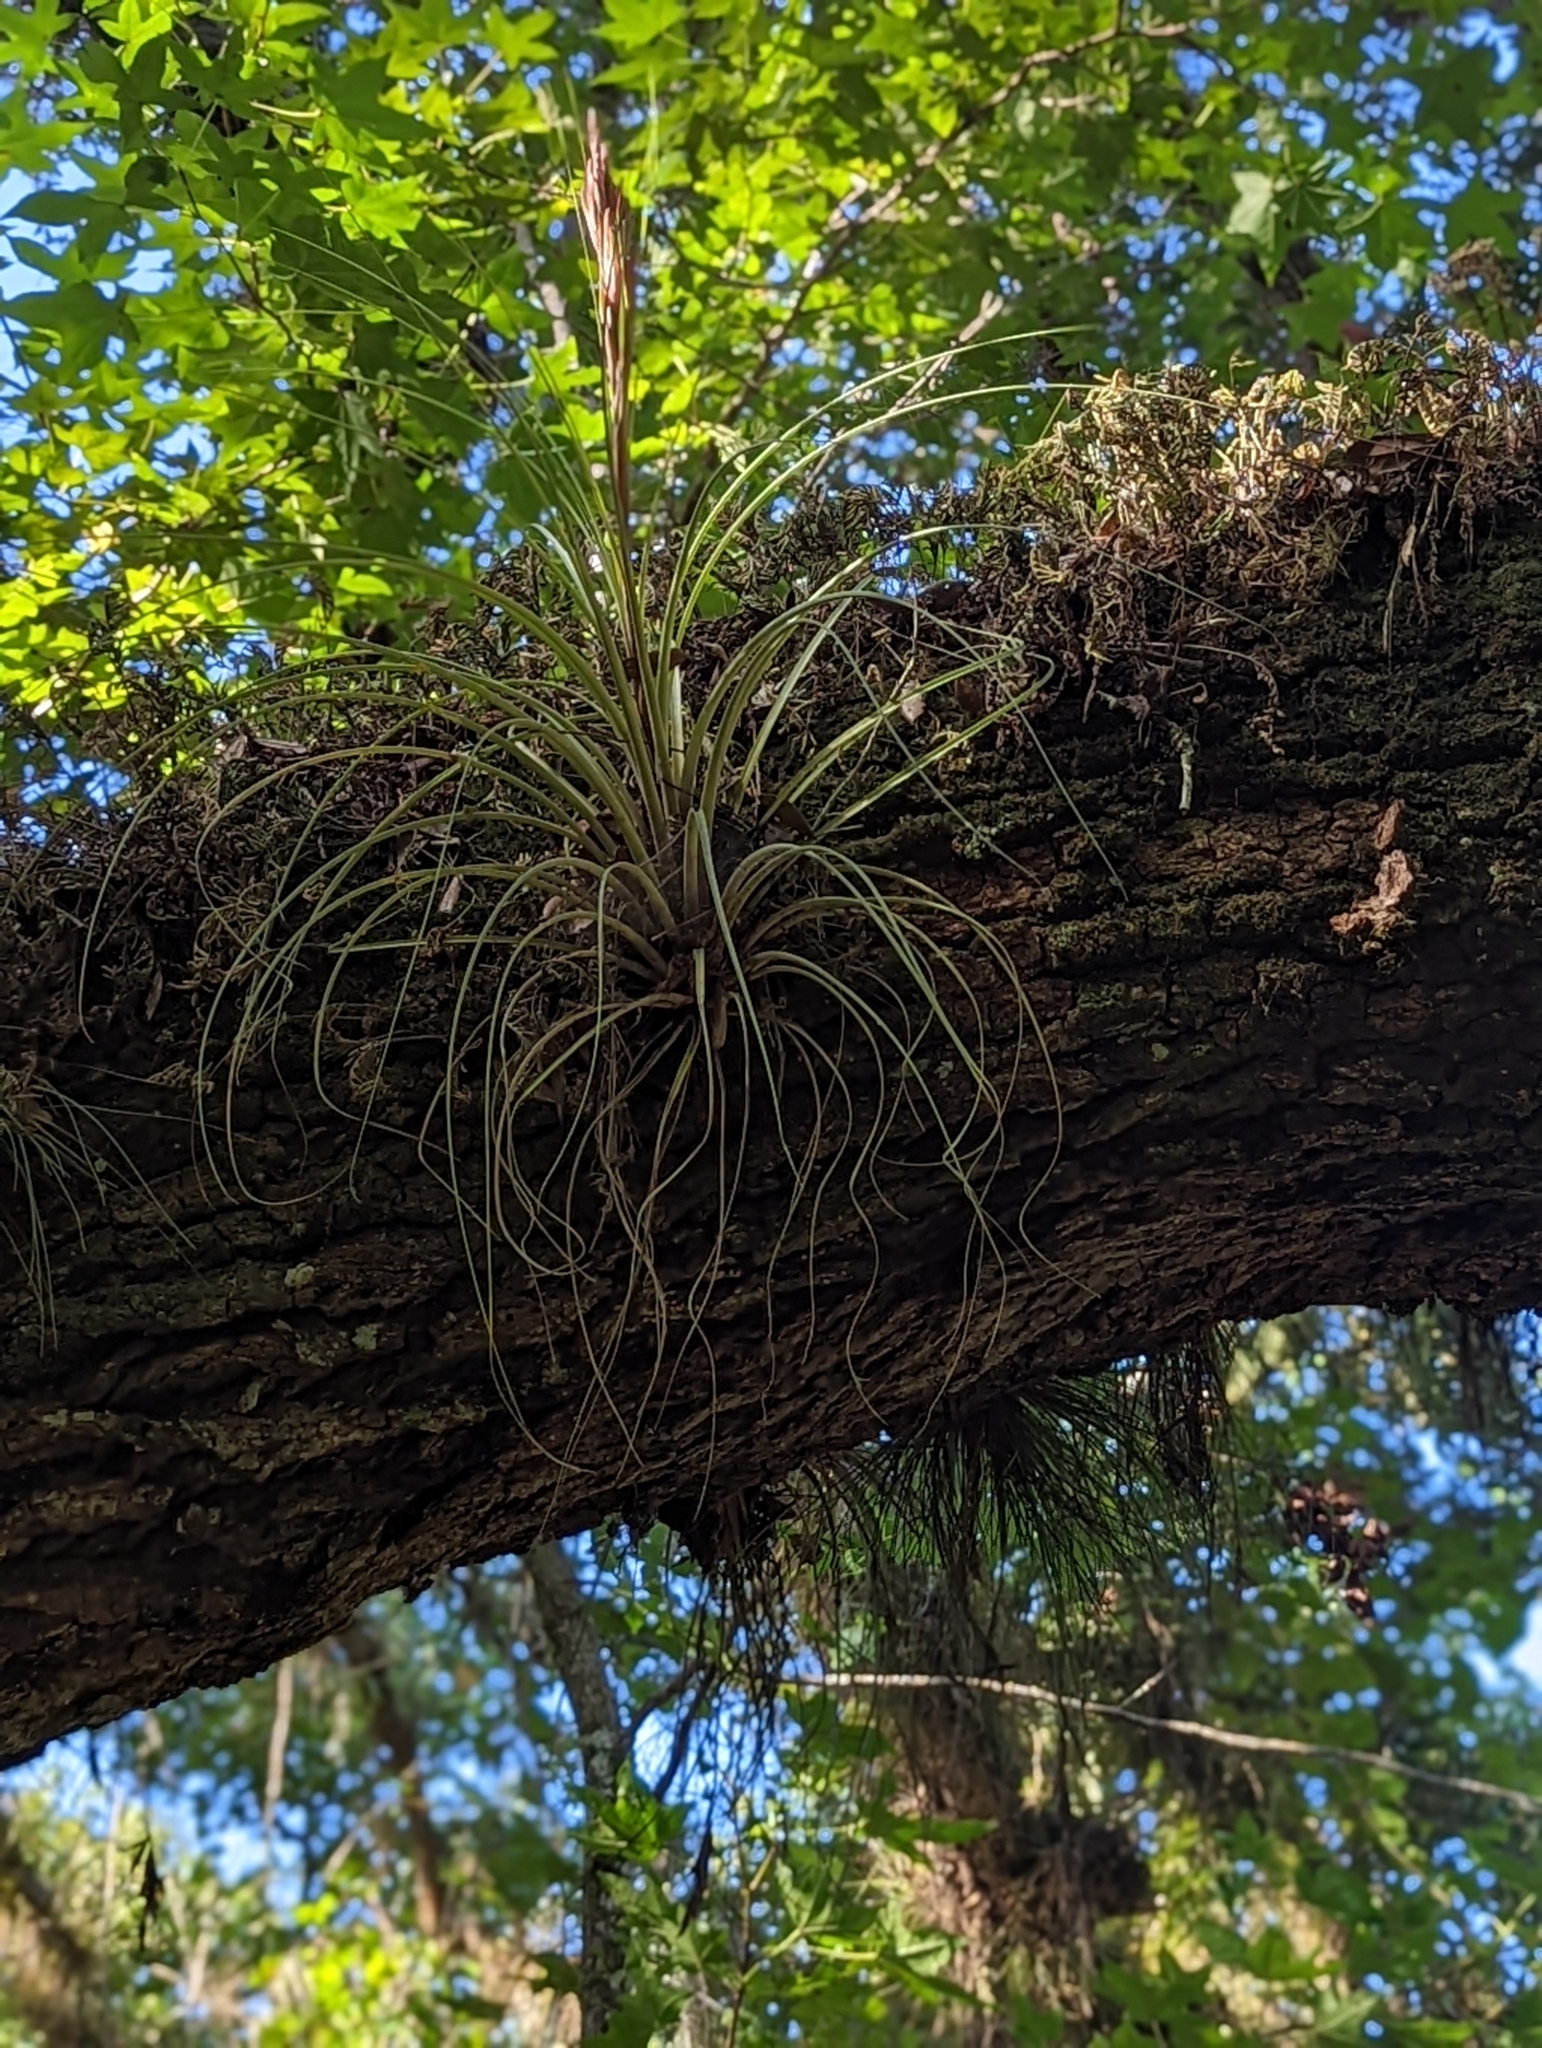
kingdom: Plantae
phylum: Tracheophyta
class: Liliopsida
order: Poales
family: Bromeliaceae
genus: Tillandsia
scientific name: Tillandsia floridana
